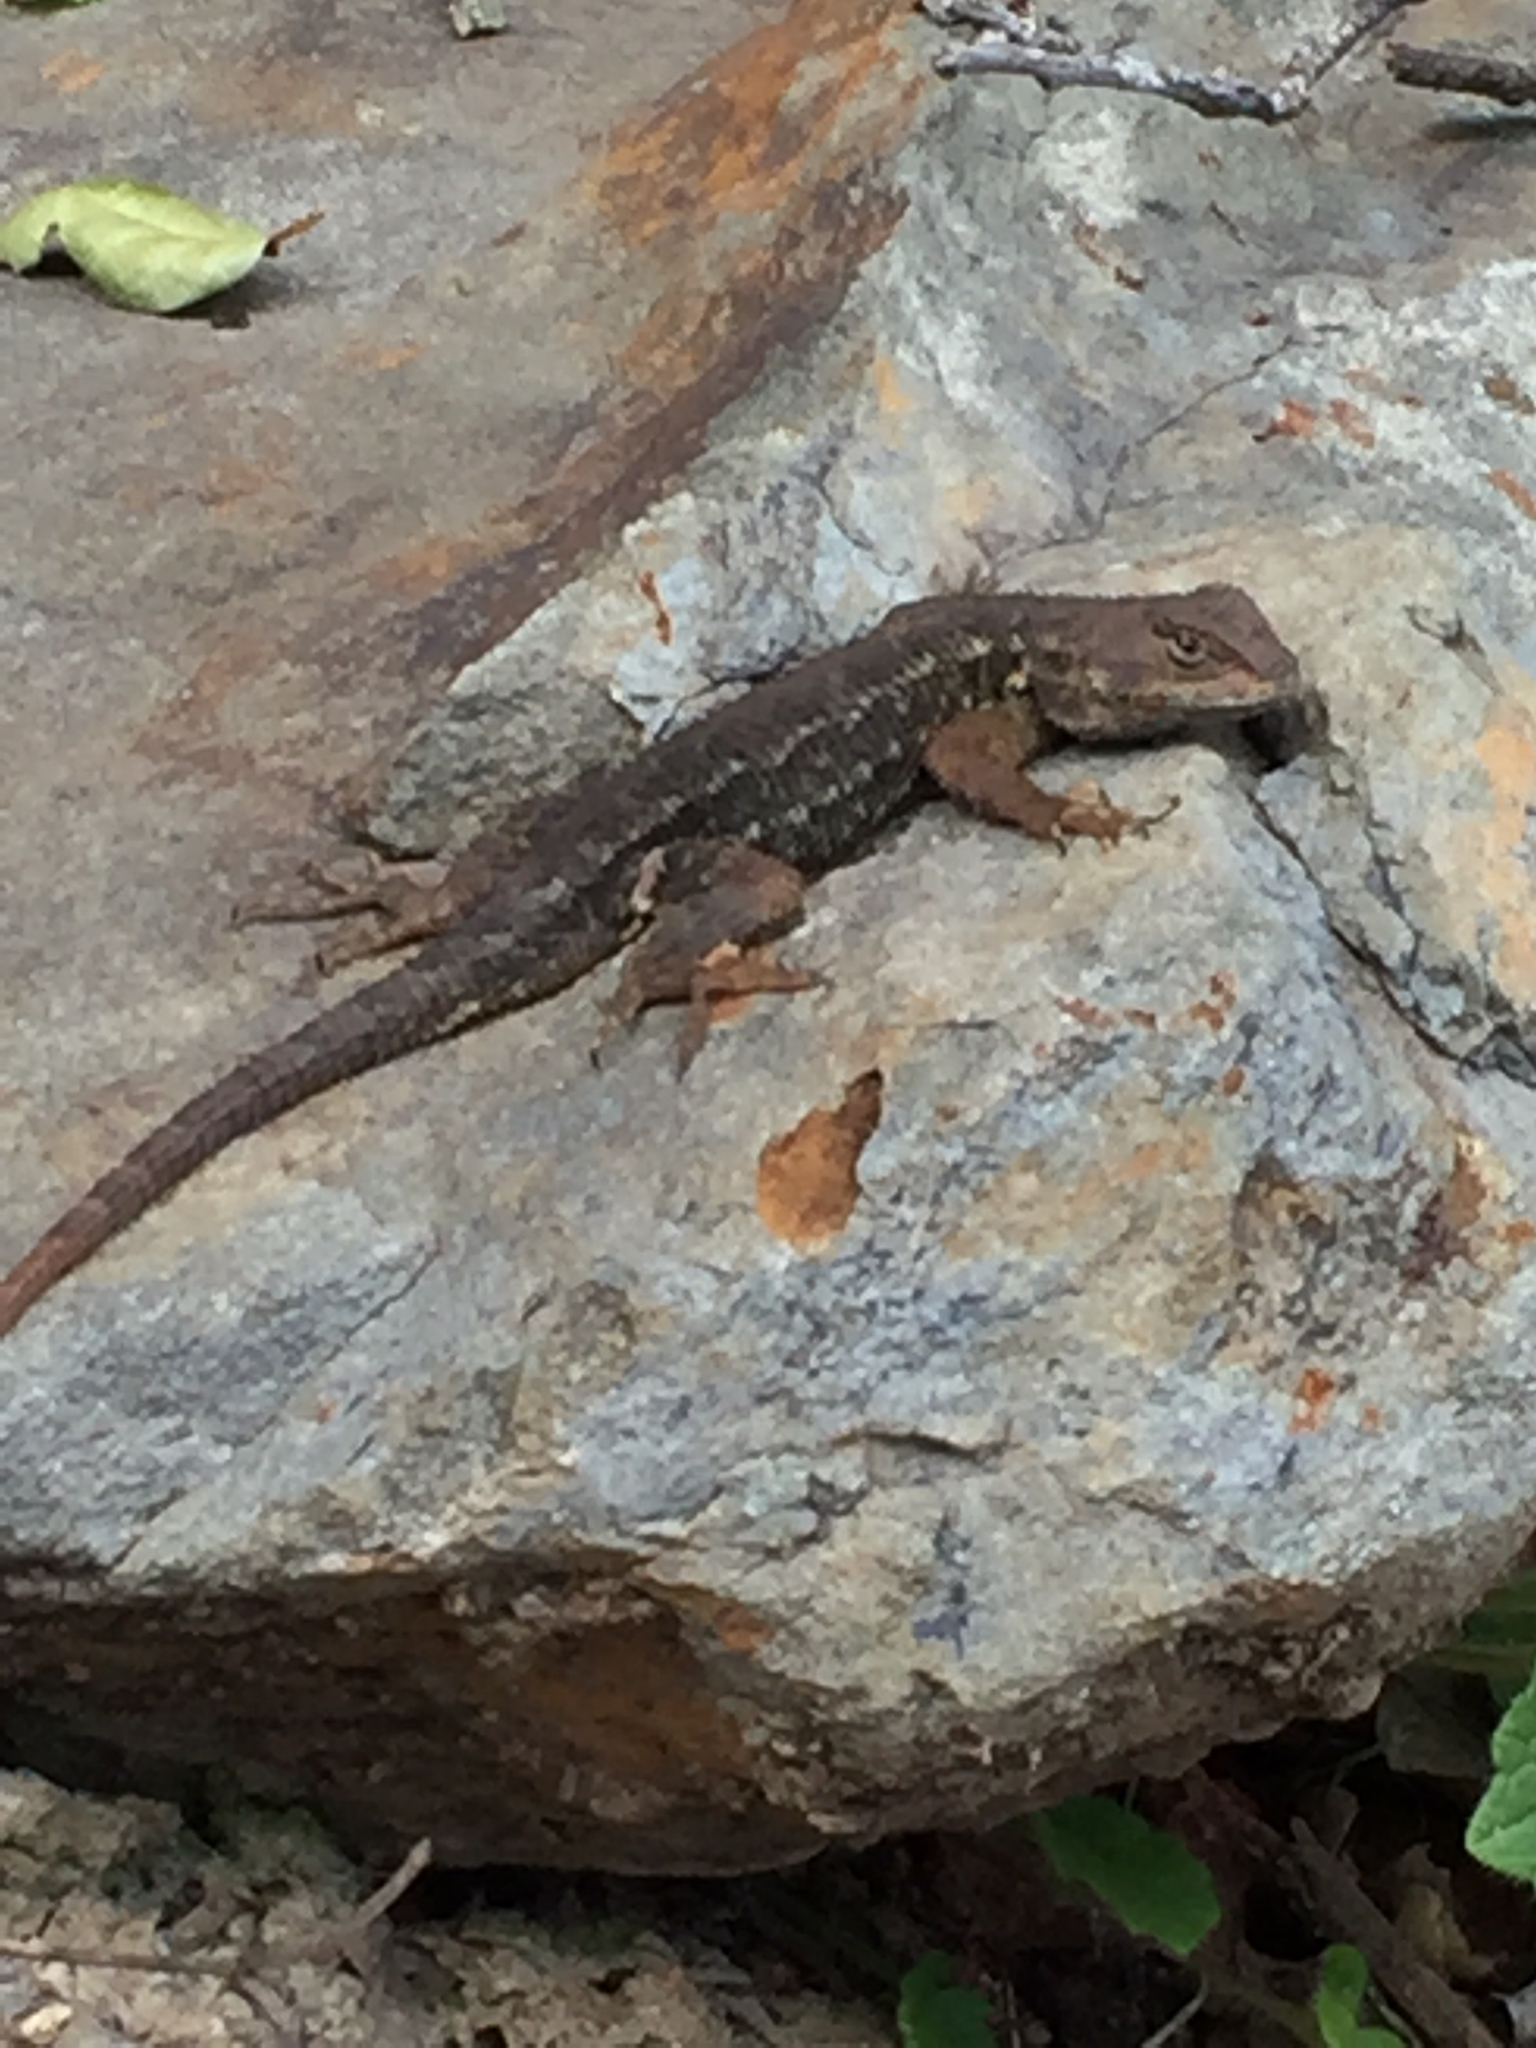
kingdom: Animalia
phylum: Chordata
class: Squamata
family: Phrynosomatidae
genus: Sceloporus
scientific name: Sceloporus occidentalis
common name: Western fence lizard
